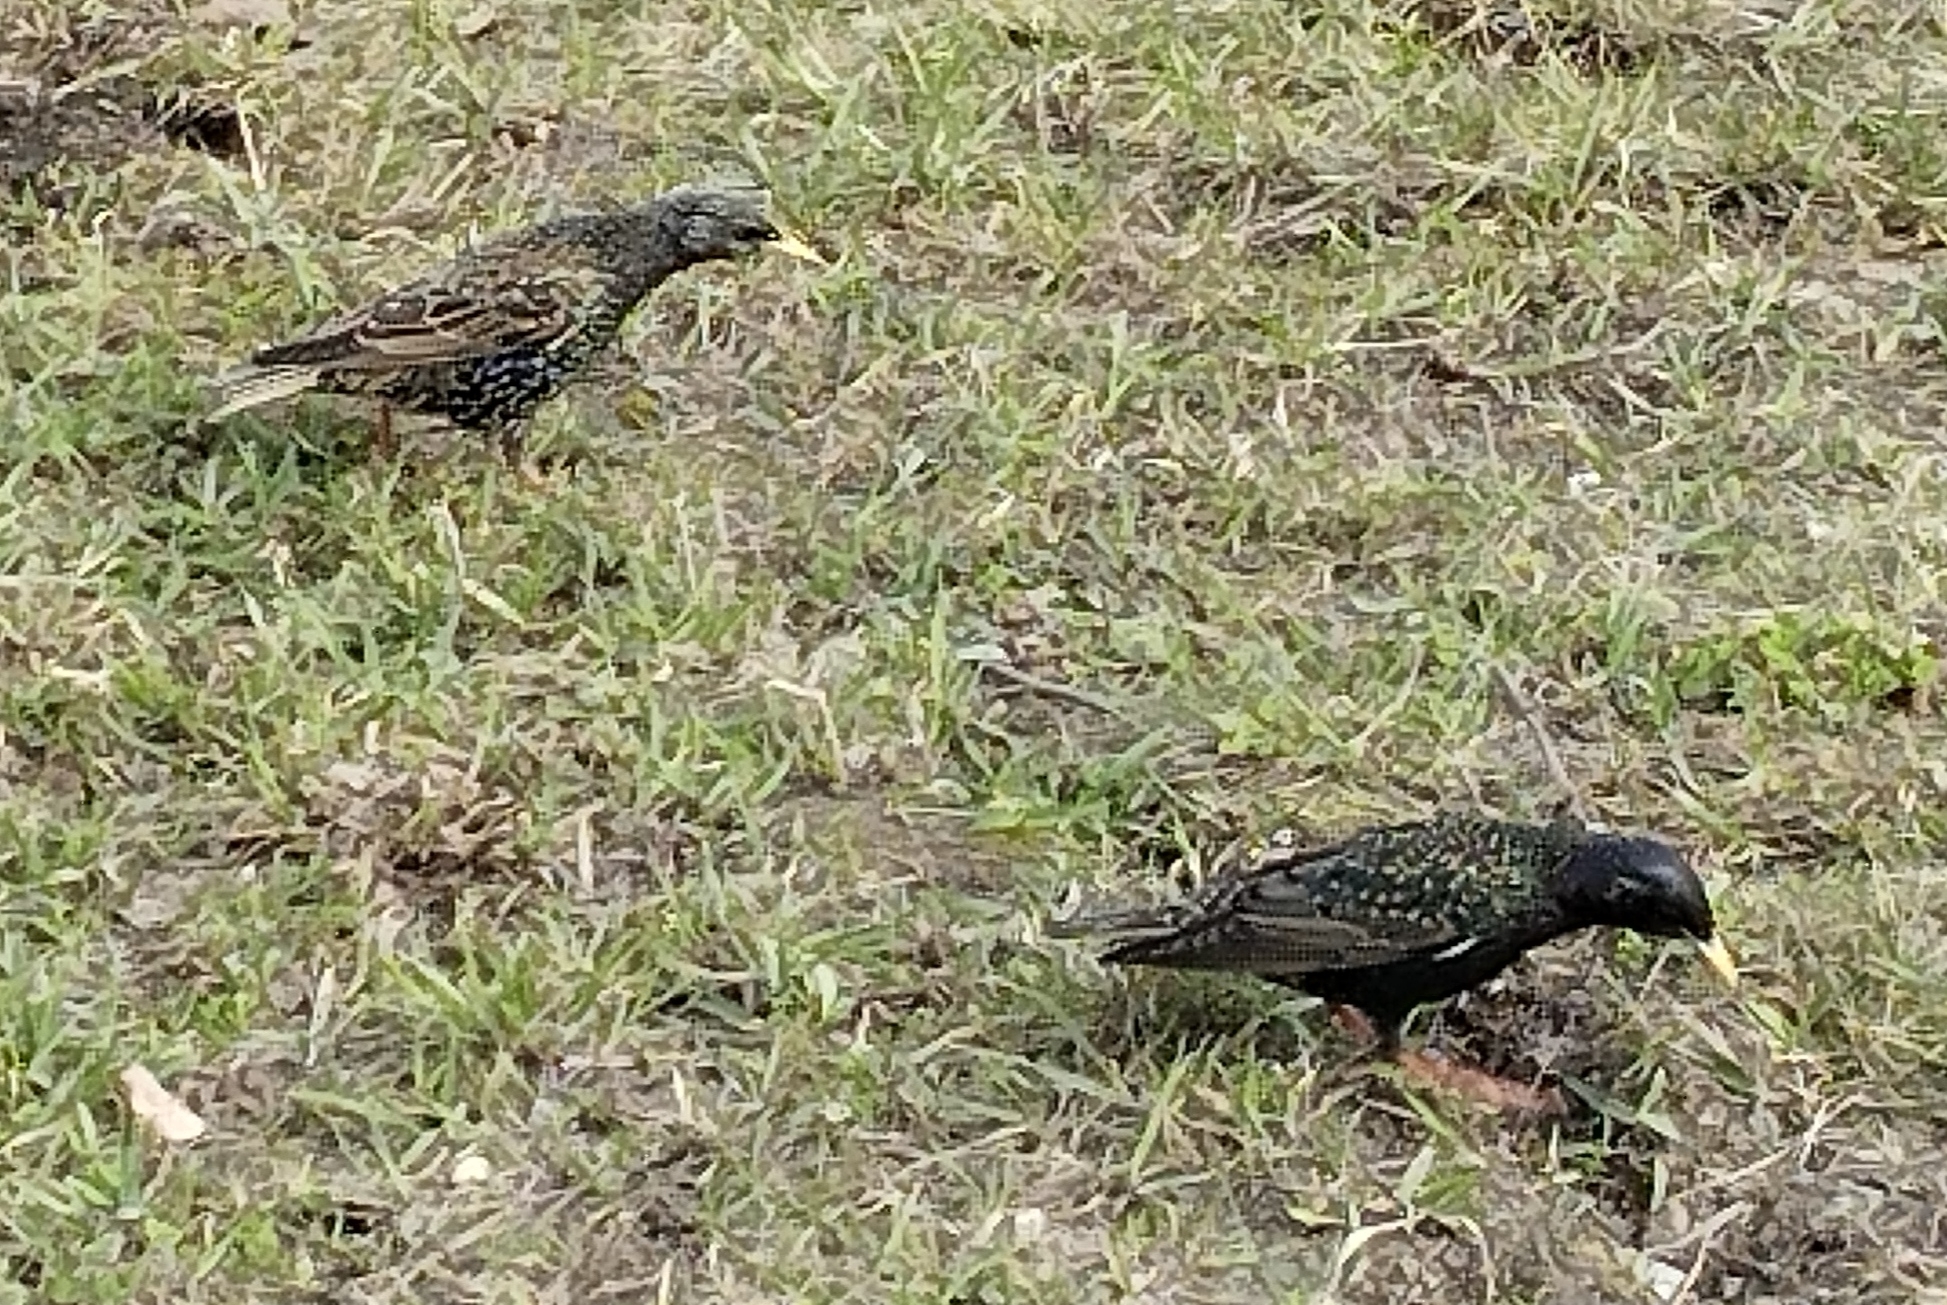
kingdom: Animalia
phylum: Chordata
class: Aves
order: Passeriformes
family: Sturnidae
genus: Sturnus
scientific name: Sturnus vulgaris
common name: Common starling
